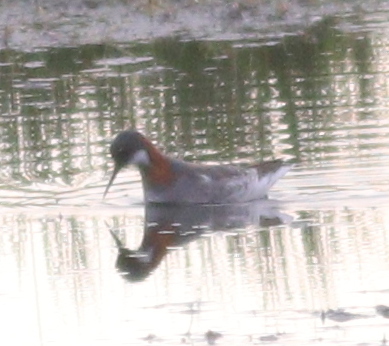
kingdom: Animalia
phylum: Chordata
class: Aves
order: Charadriiformes
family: Scolopacidae
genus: Phalaropus
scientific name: Phalaropus lobatus
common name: Red-necked phalarope
